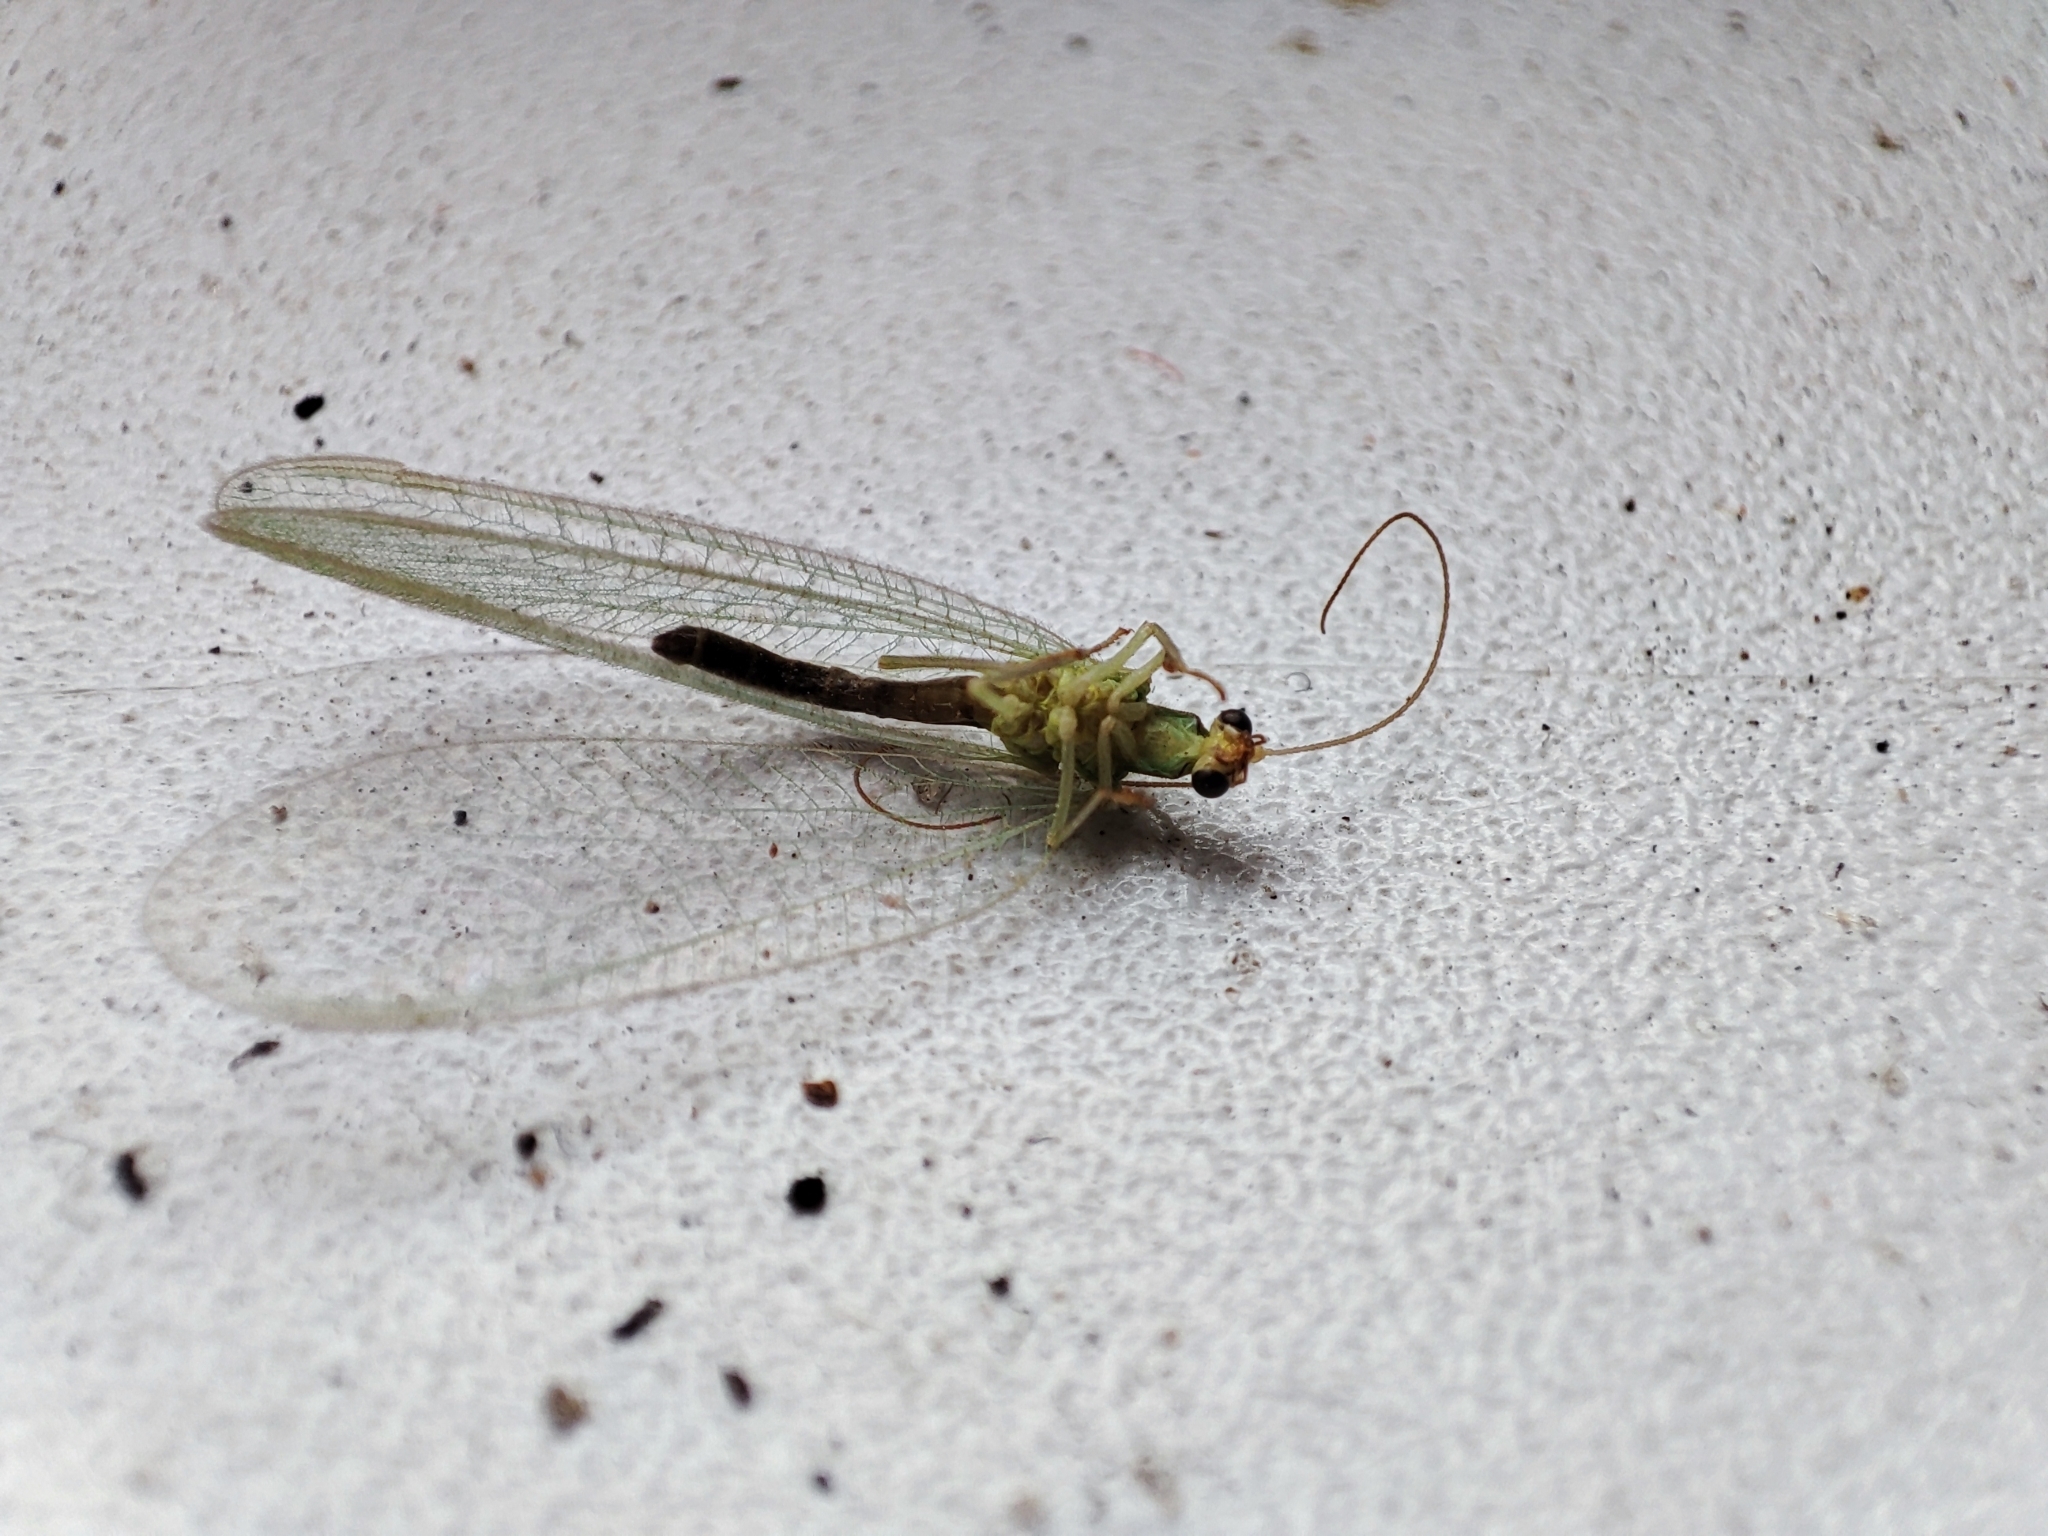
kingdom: Animalia
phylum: Arthropoda
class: Insecta
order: Neuroptera
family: Chrysopidae
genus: Chrysoperla
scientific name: Chrysoperla
